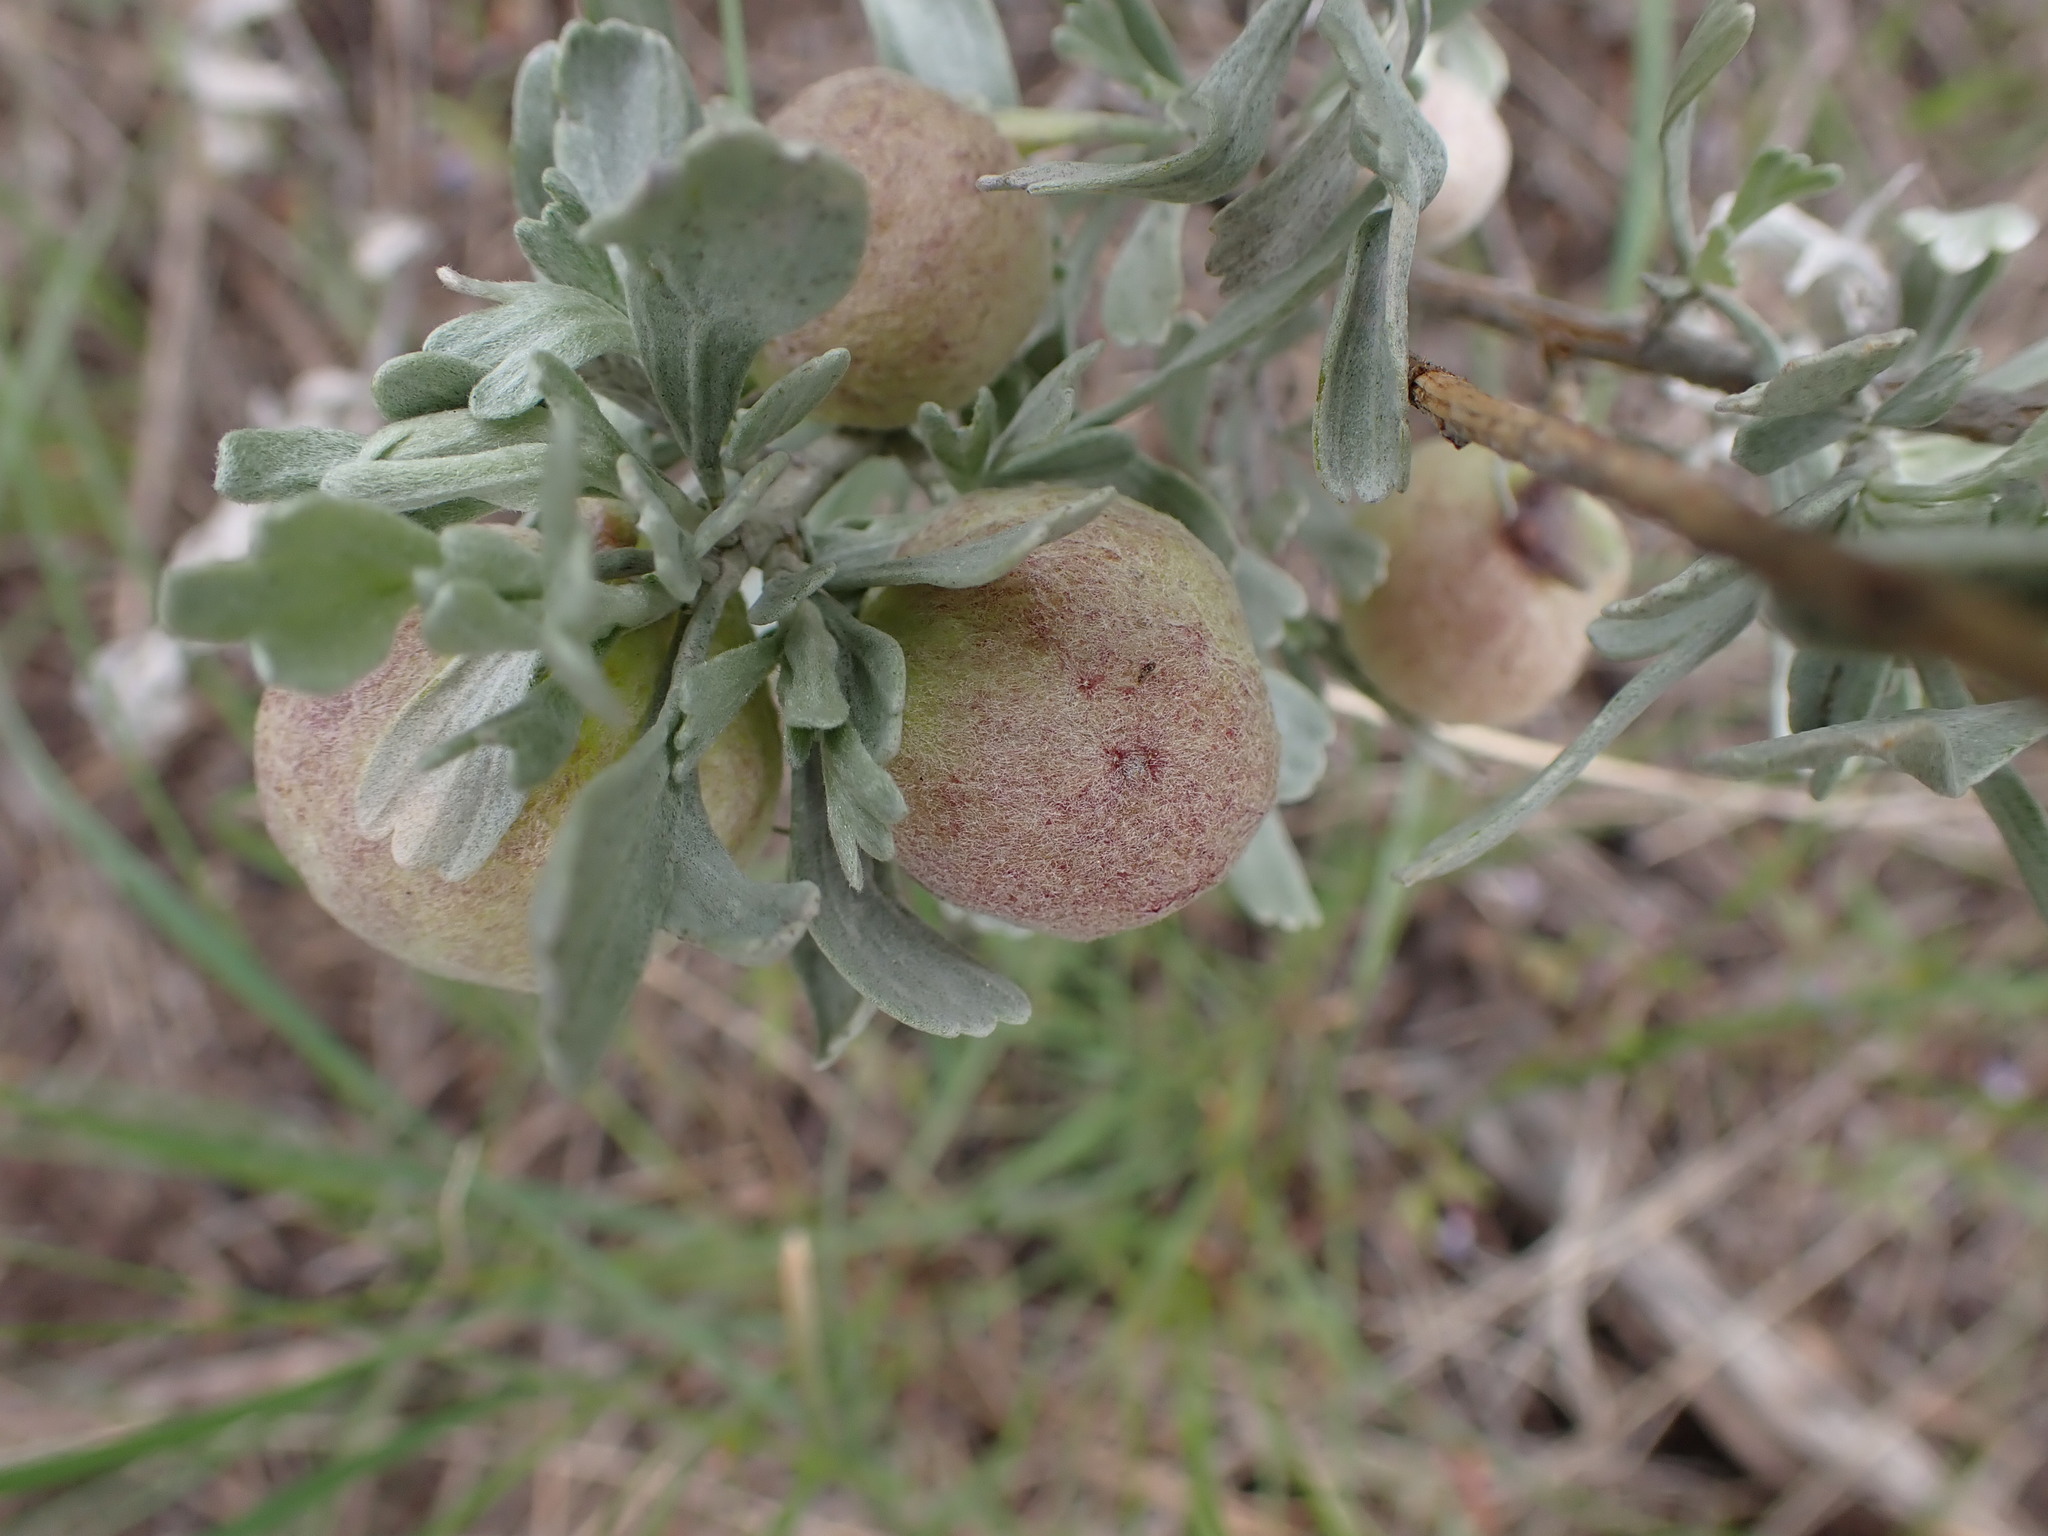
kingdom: Animalia
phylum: Arthropoda
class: Insecta
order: Diptera
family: Cecidomyiidae
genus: Rhopalomyia
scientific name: Rhopalomyia pomum
